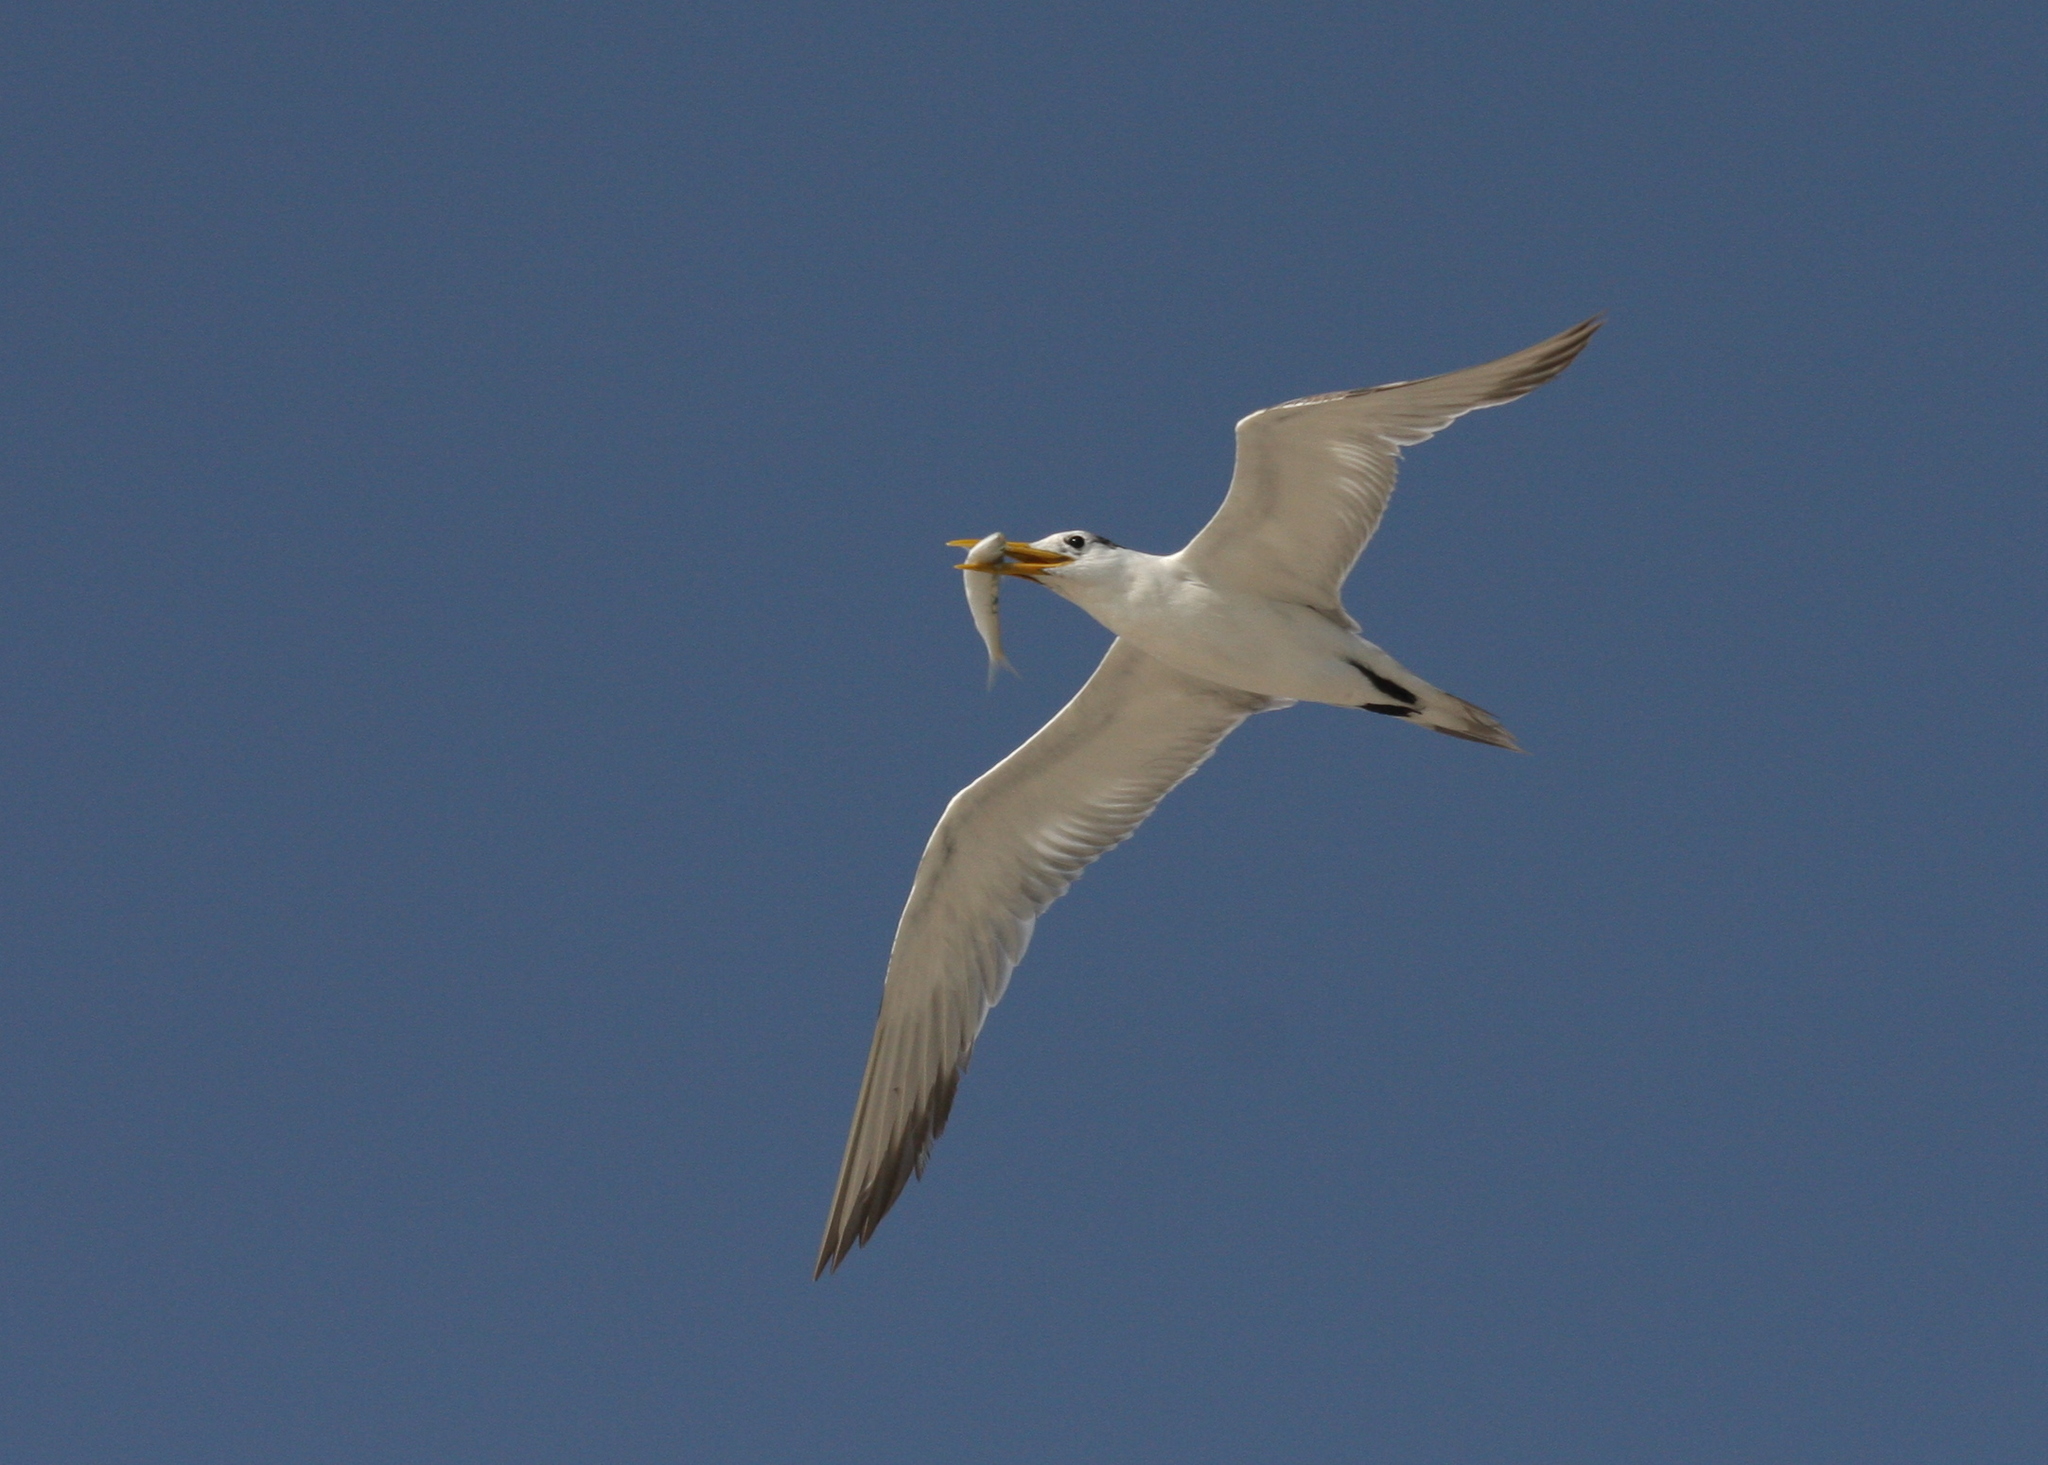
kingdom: Animalia
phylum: Chordata
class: Aves
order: Charadriiformes
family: Laridae
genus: Thalasseus
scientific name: Thalasseus bergii
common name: Greater crested tern
